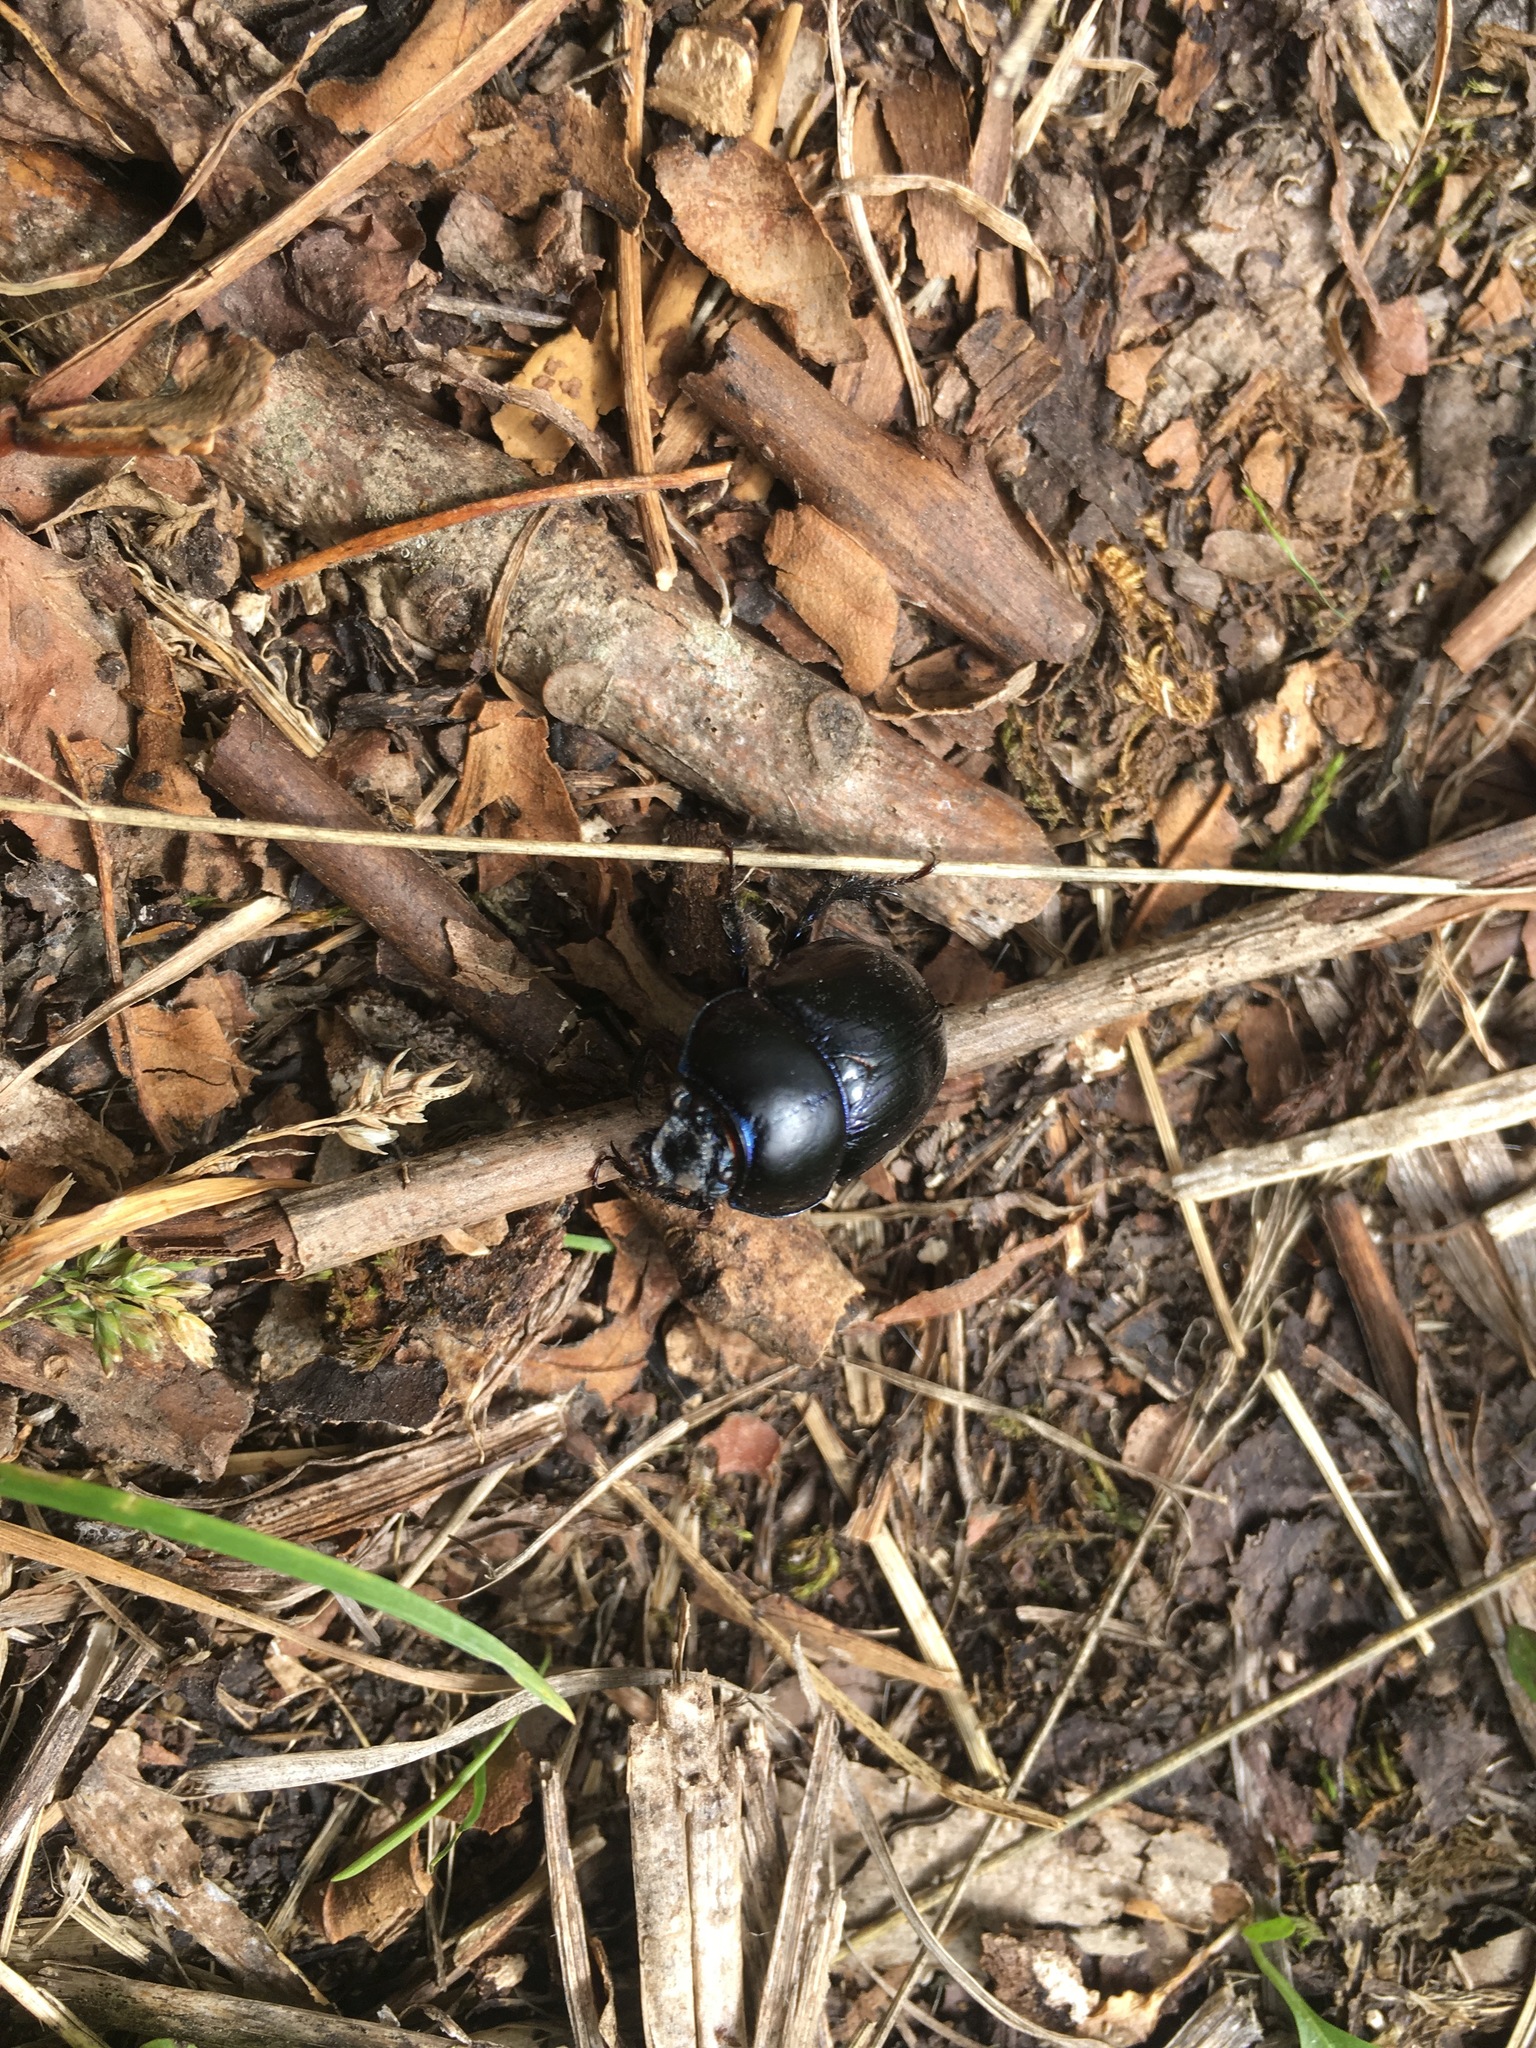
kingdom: Animalia
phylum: Arthropoda
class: Insecta
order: Coleoptera
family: Geotrupidae
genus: Anoplotrupes
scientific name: Anoplotrupes stercorosus
